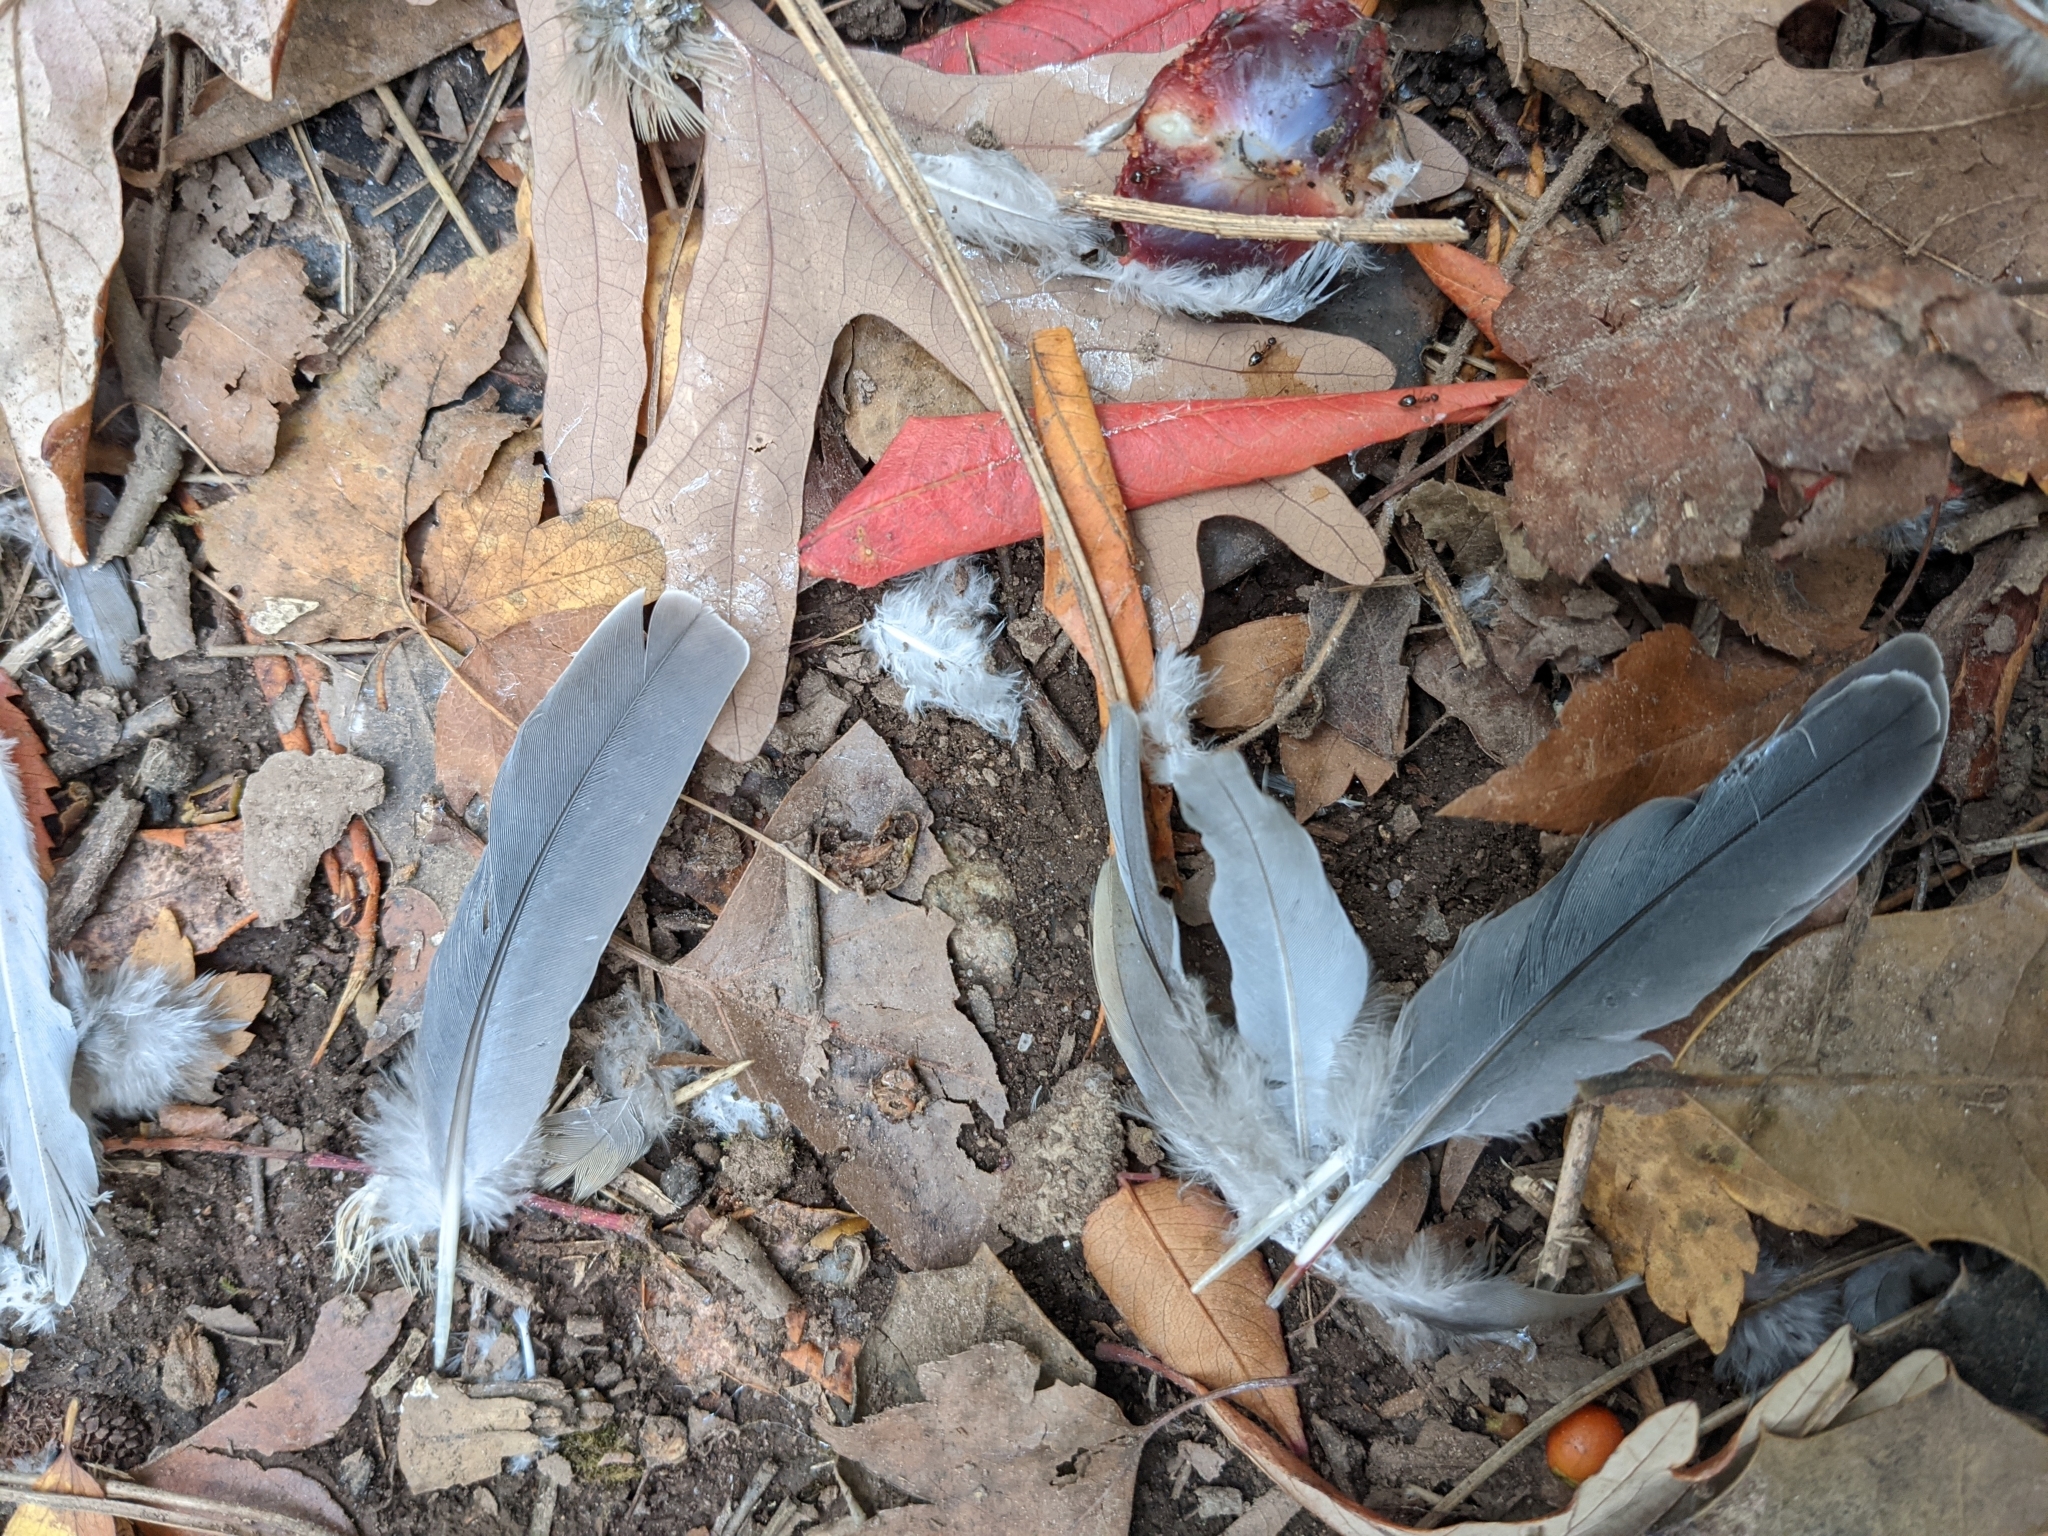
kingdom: Animalia
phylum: Chordata
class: Aves
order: Columbiformes
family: Columbidae
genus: Zenaida
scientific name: Zenaida macroura
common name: Mourning dove
